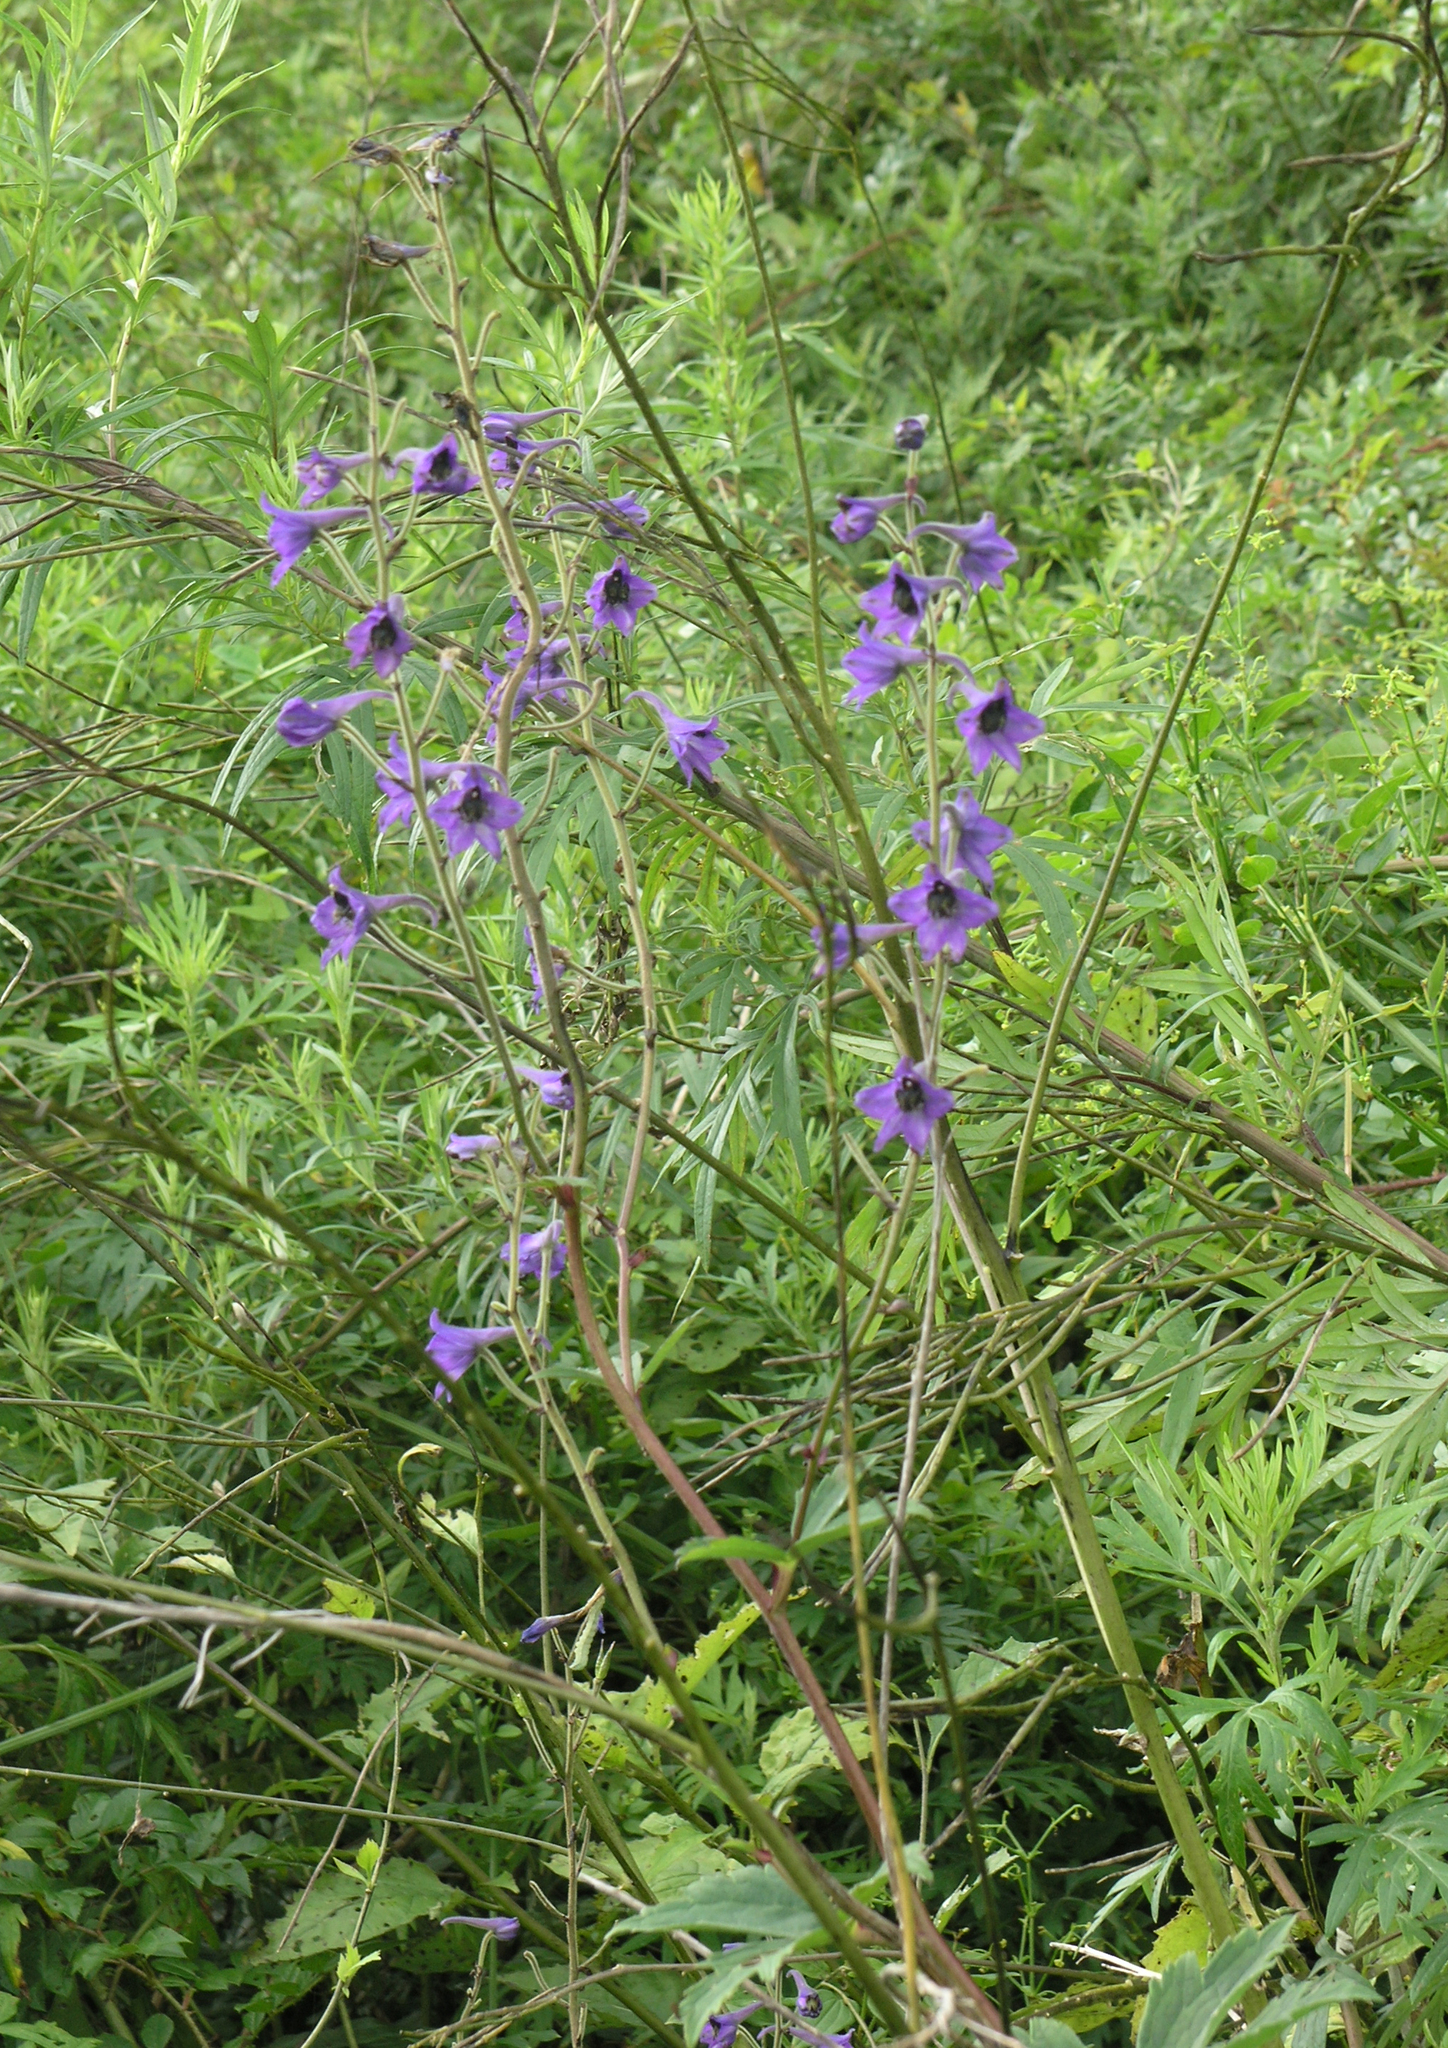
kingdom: Plantae
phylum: Tracheophyta
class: Magnoliopsida
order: Ranunculales
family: Ranunculaceae
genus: Delphinium
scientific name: Delphinium maackianum
